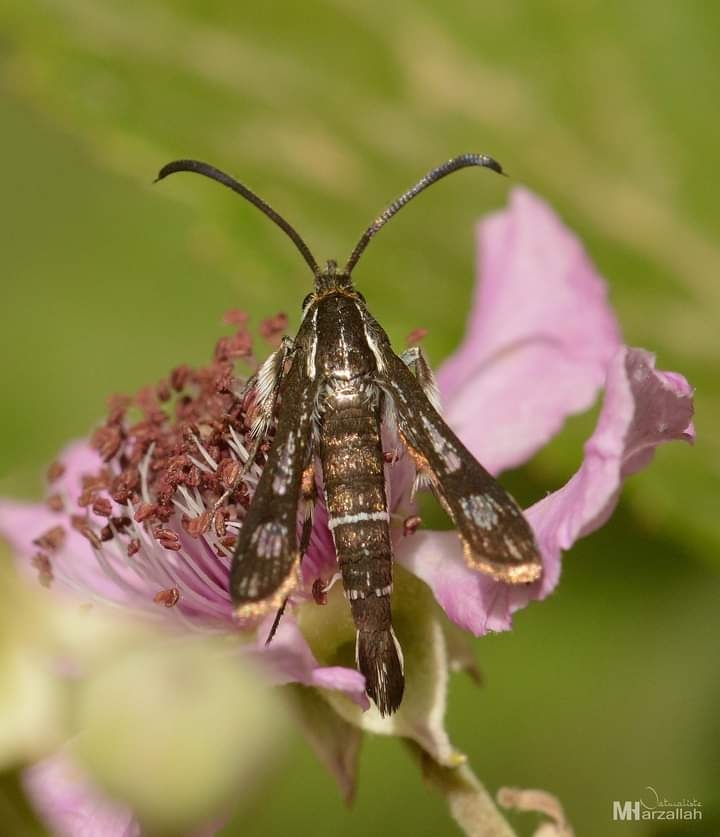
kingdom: Animalia
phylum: Arthropoda
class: Insecta
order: Lepidoptera
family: Sesiidae
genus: Pyropteron
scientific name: Pyropteron leucomelaena
